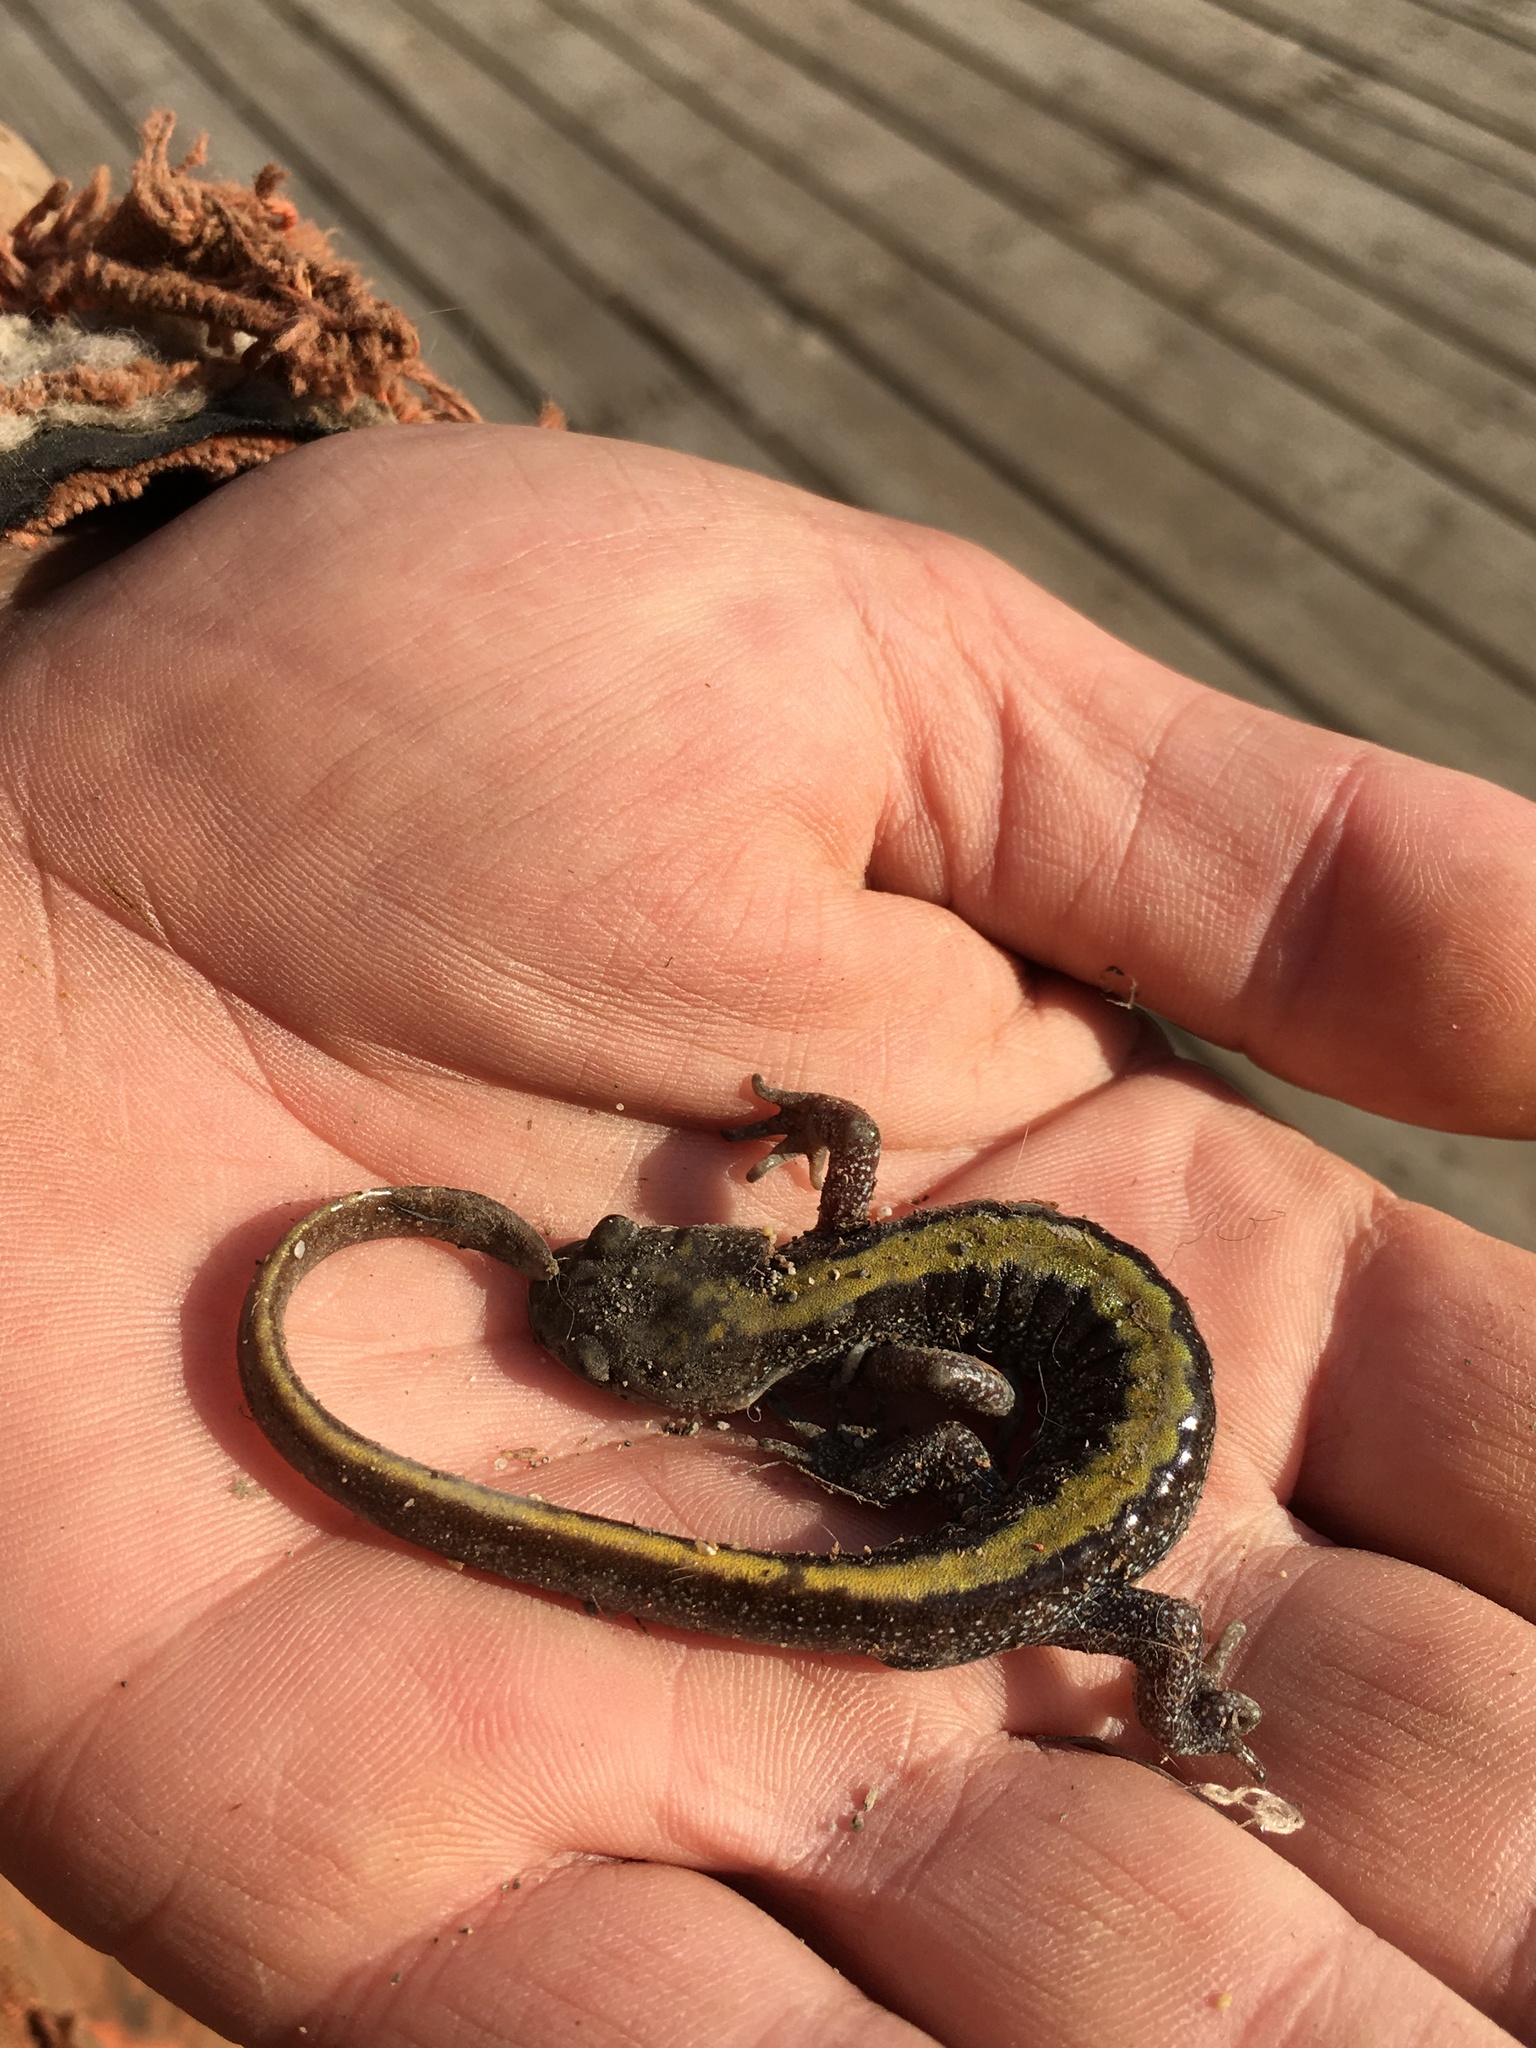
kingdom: Animalia
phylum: Chordata
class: Amphibia
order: Caudata
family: Ambystomatidae
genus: Ambystoma
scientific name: Ambystoma macrodactylum
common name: Long-toed salamander
